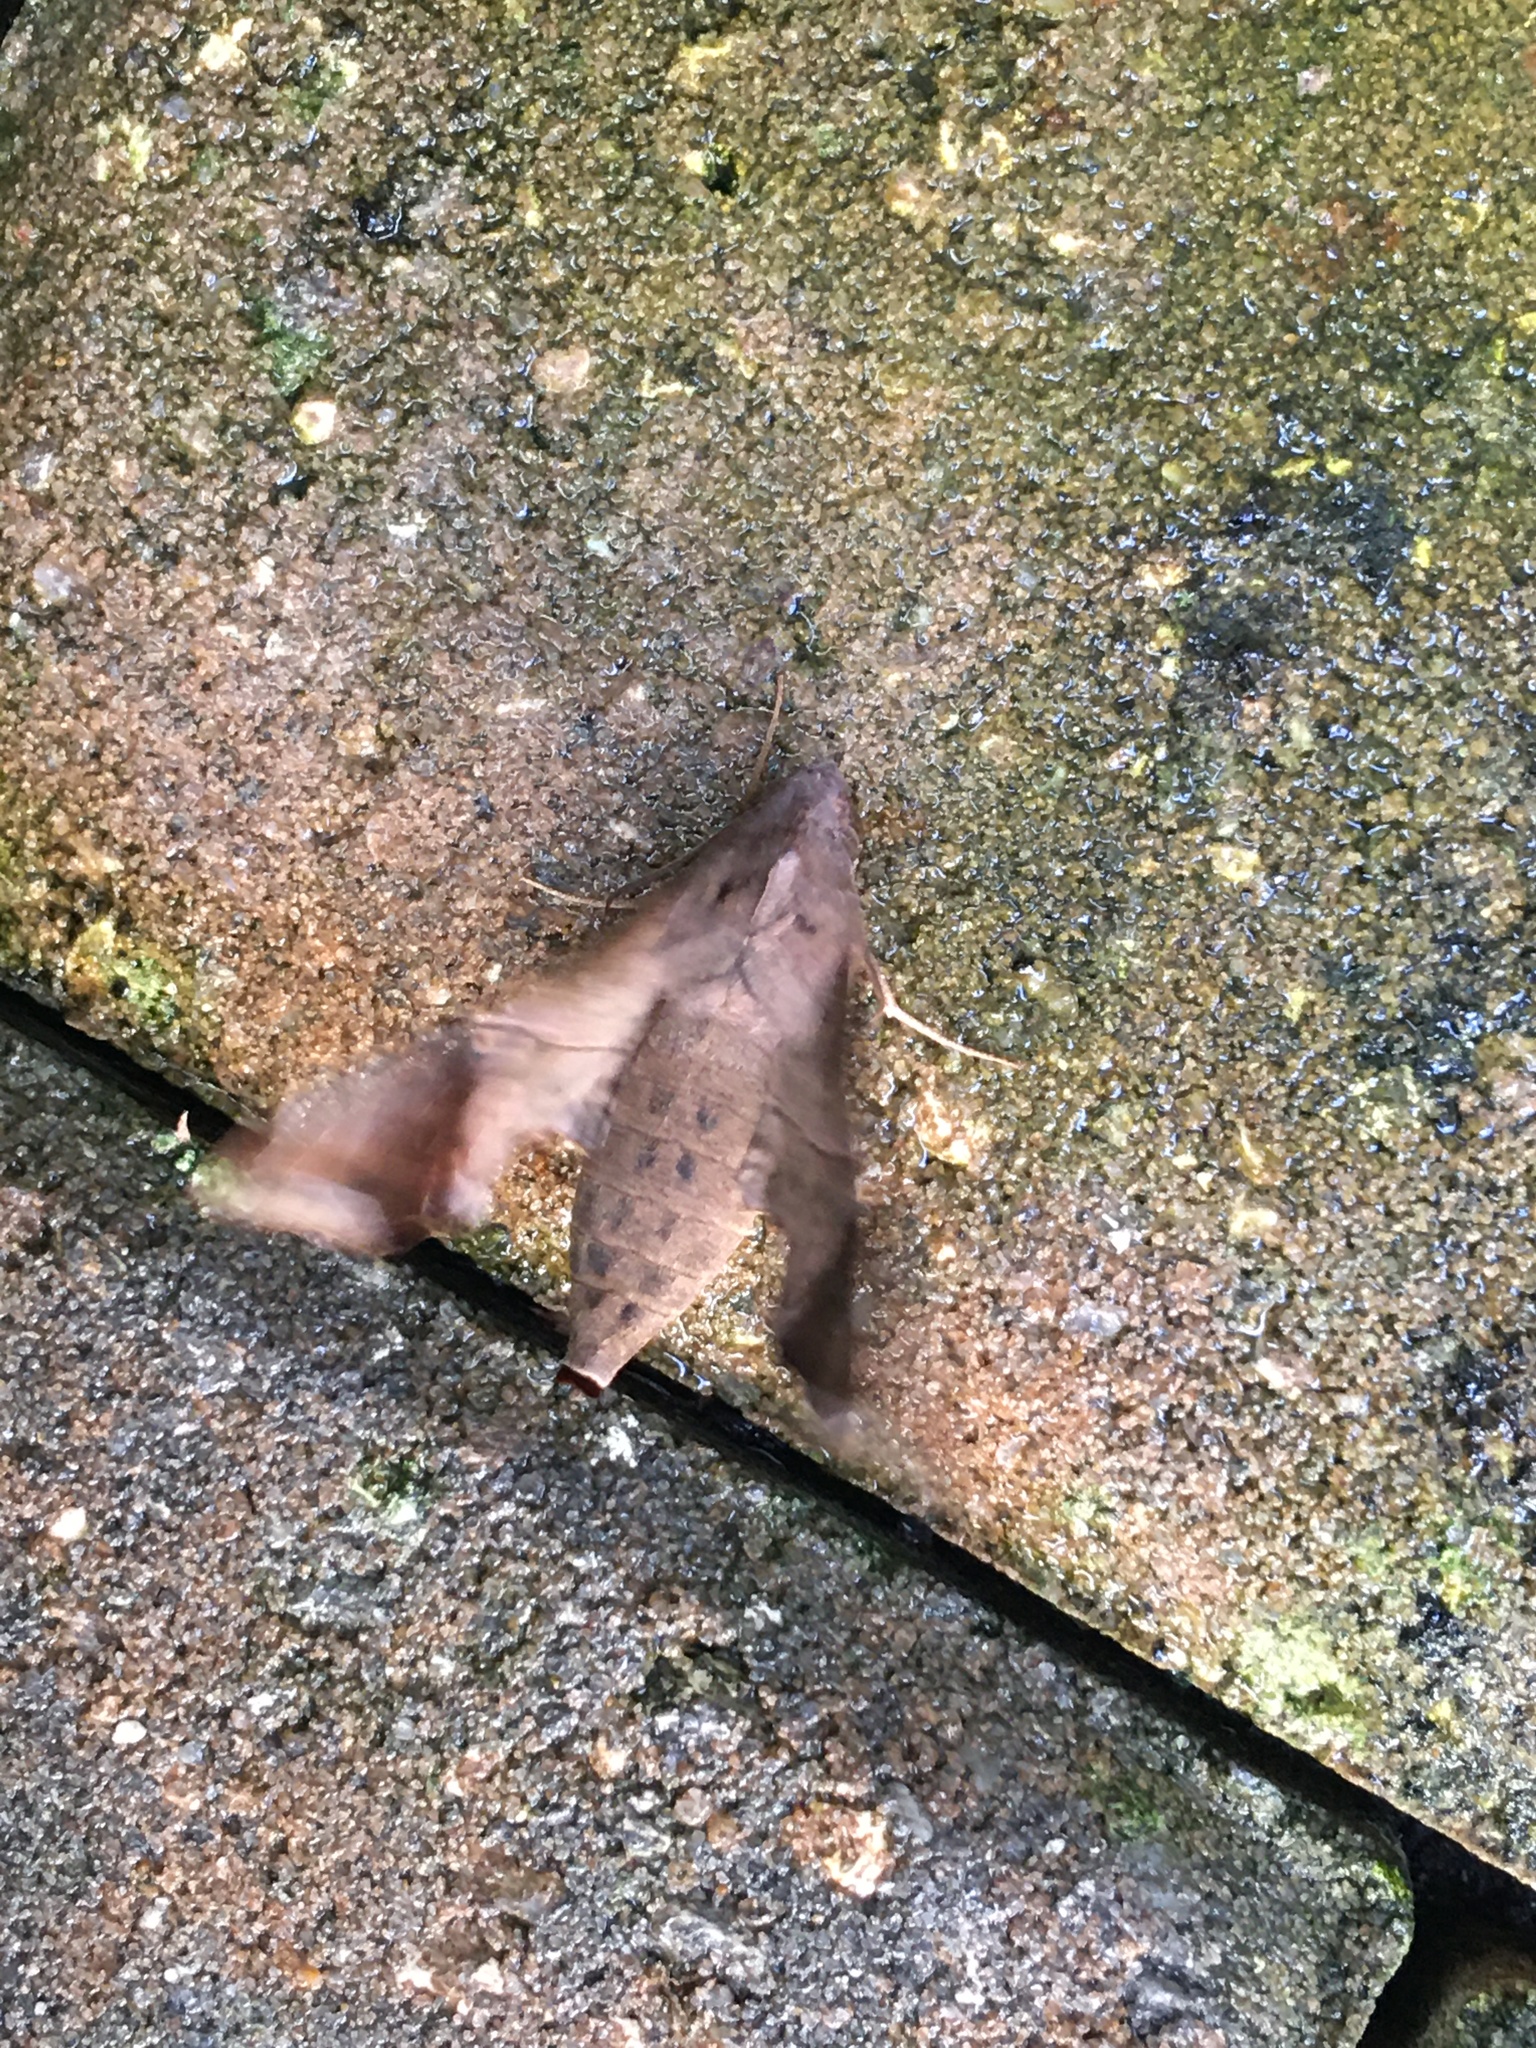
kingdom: Animalia
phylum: Arthropoda
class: Insecta
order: Lepidoptera
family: Sphingidae
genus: Enyo
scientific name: Enyo lugubris
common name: Mournful sphinx
